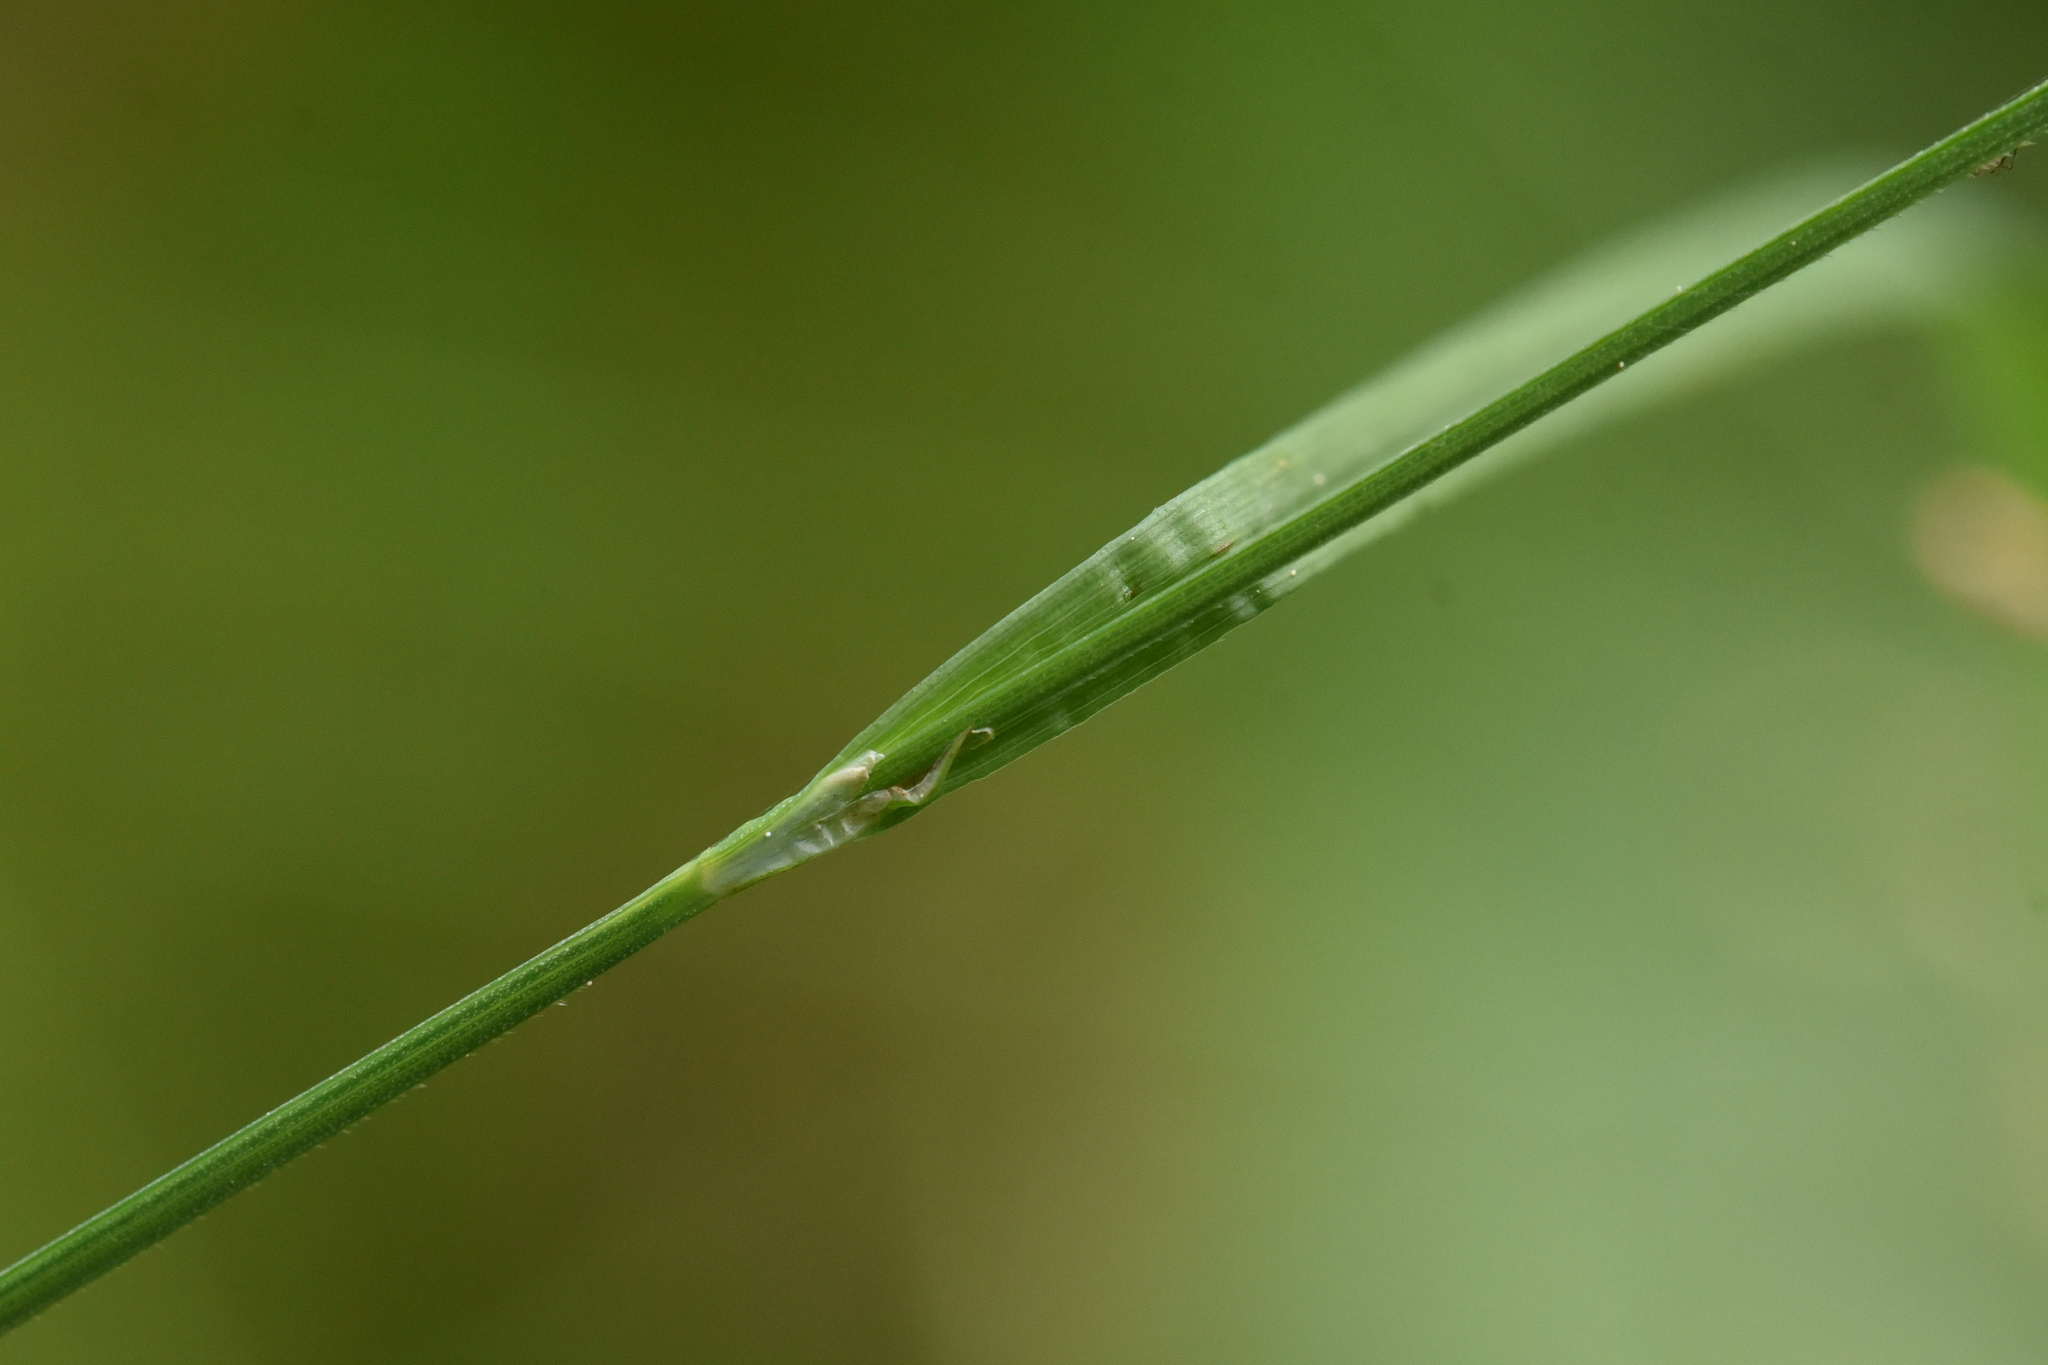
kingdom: Plantae
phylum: Tracheophyta
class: Liliopsida
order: Poales
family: Cyperaceae
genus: Carex
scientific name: Carex magellanica
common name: Bog sedge
